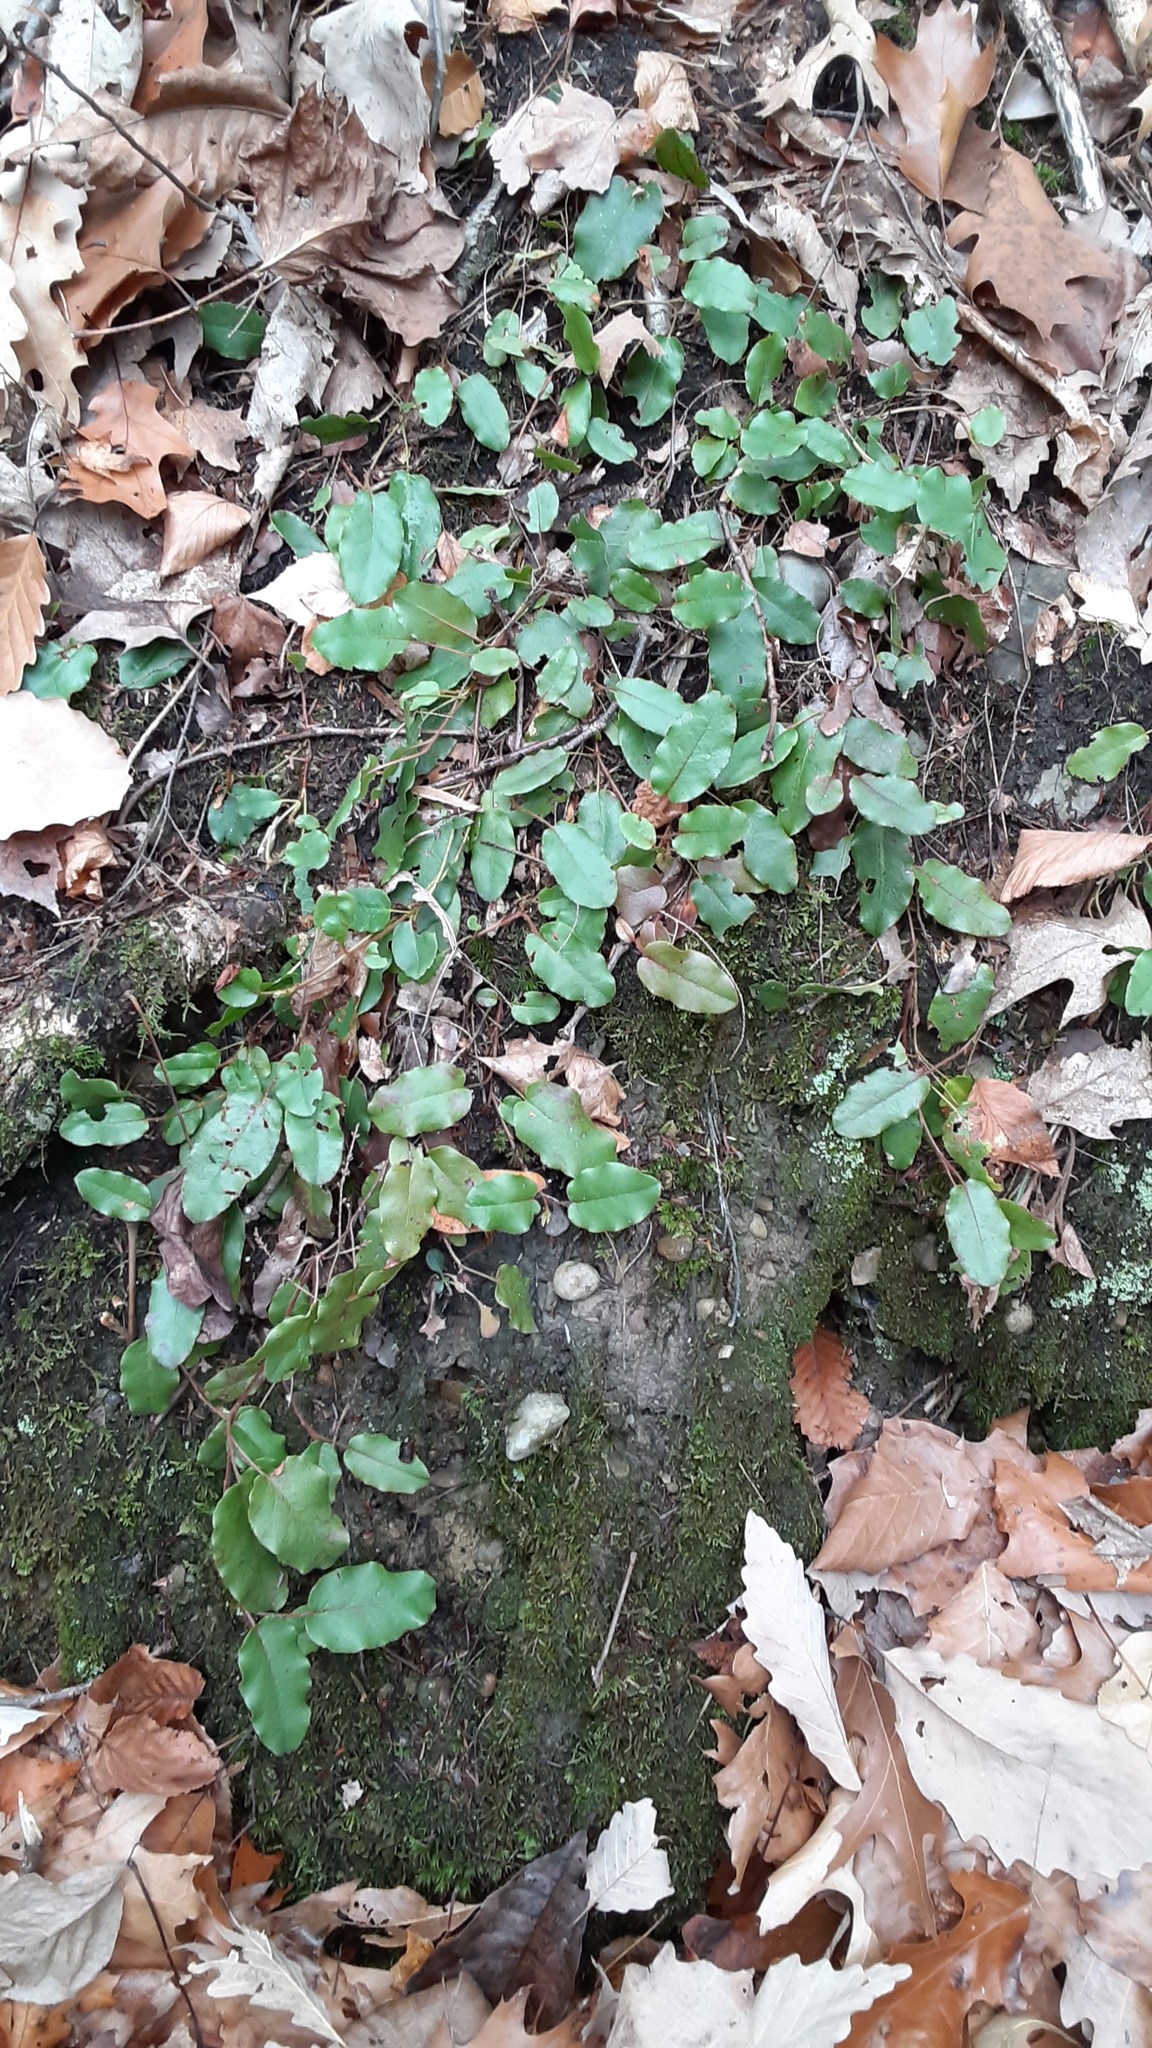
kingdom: Plantae
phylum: Tracheophyta
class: Magnoliopsida
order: Ericales
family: Ericaceae
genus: Epigaea
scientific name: Epigaea repens
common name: Gravelroot
